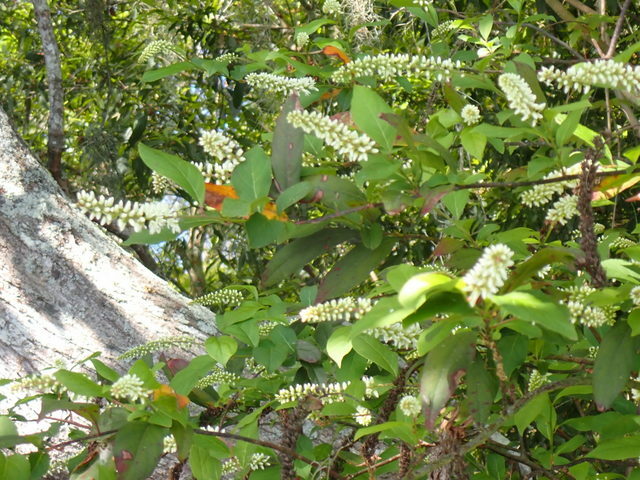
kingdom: Plantae
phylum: Tracheophyta
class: Magnoliopsida
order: Saxifragales
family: Iteaceae
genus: Itea
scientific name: Itea virginica
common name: Sweetspire
